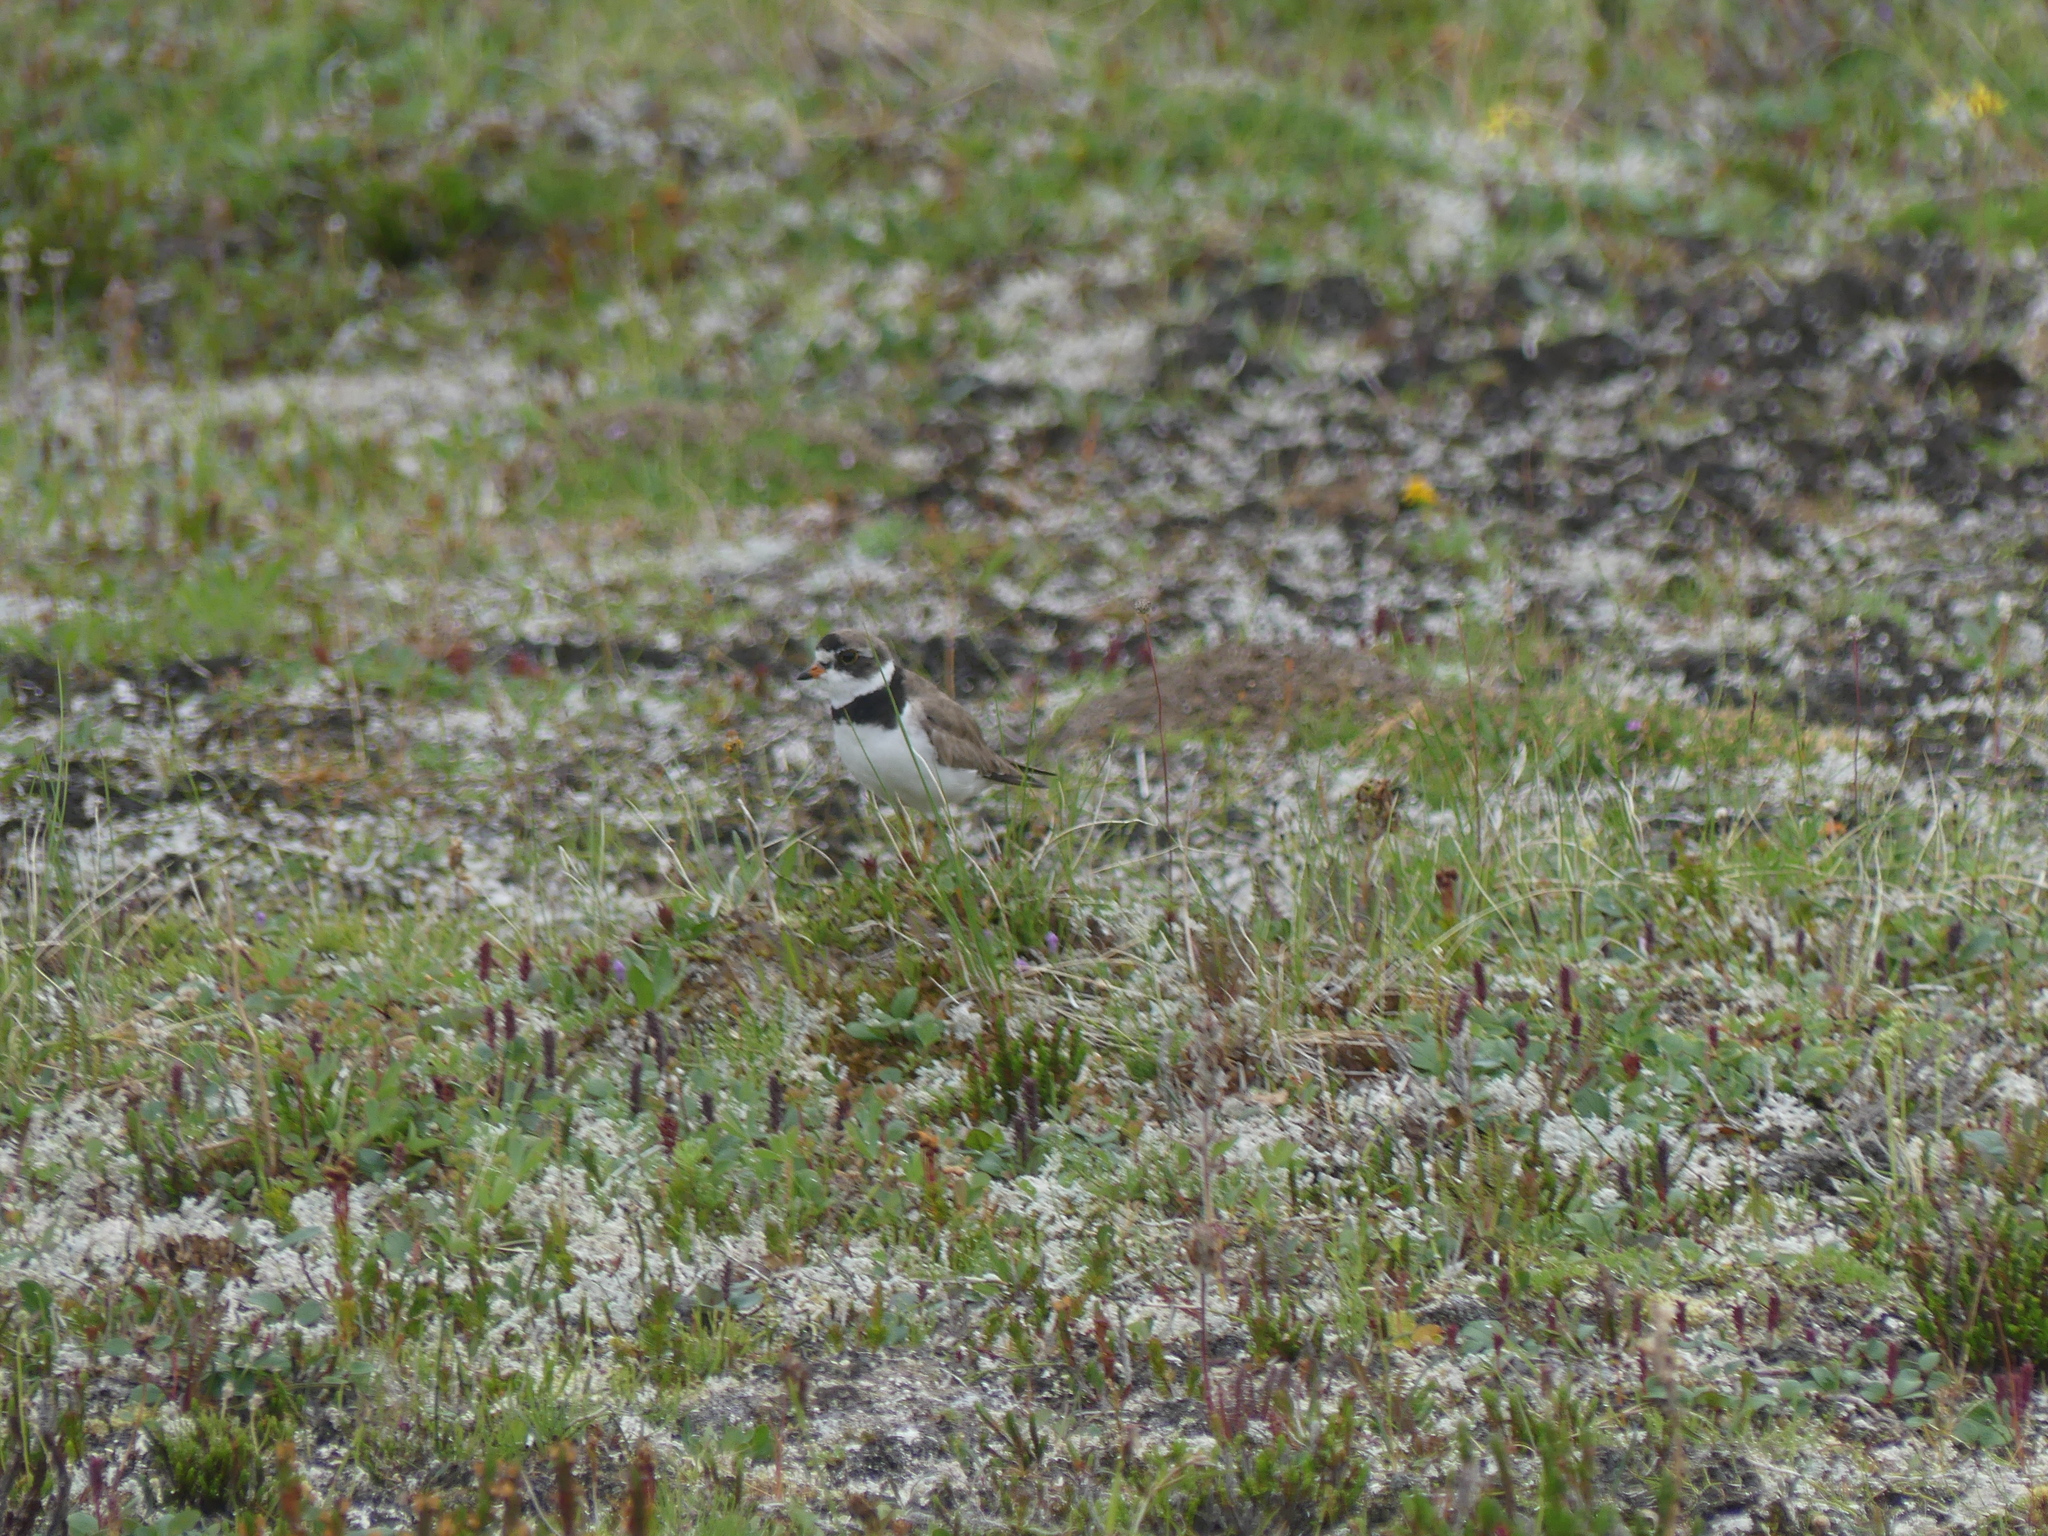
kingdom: Animalia
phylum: Chordata
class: Aves
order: Charadriiformes
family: Charadriidae
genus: Charadrius
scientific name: Charadrius semipalmatus
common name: Semipalmated plover
